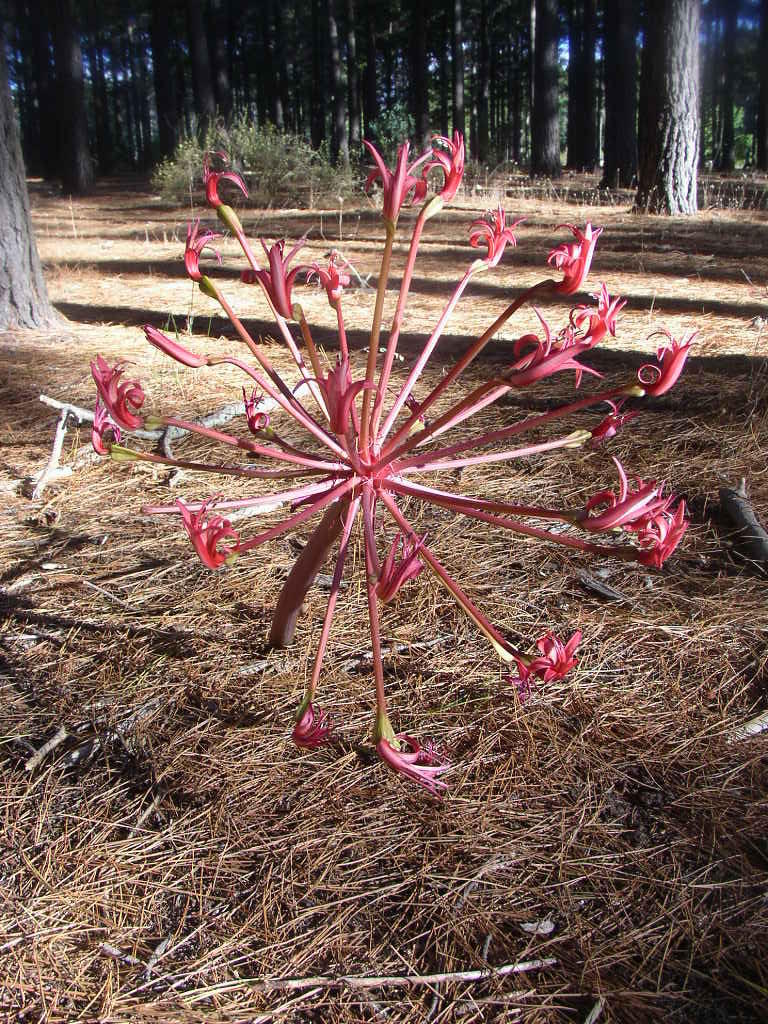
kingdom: Plantae
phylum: Tracheophyta
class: Liliopsida
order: Asparagales
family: Amaryllidaceae
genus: Brunsvigia
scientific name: Brunsvigia orientalis
